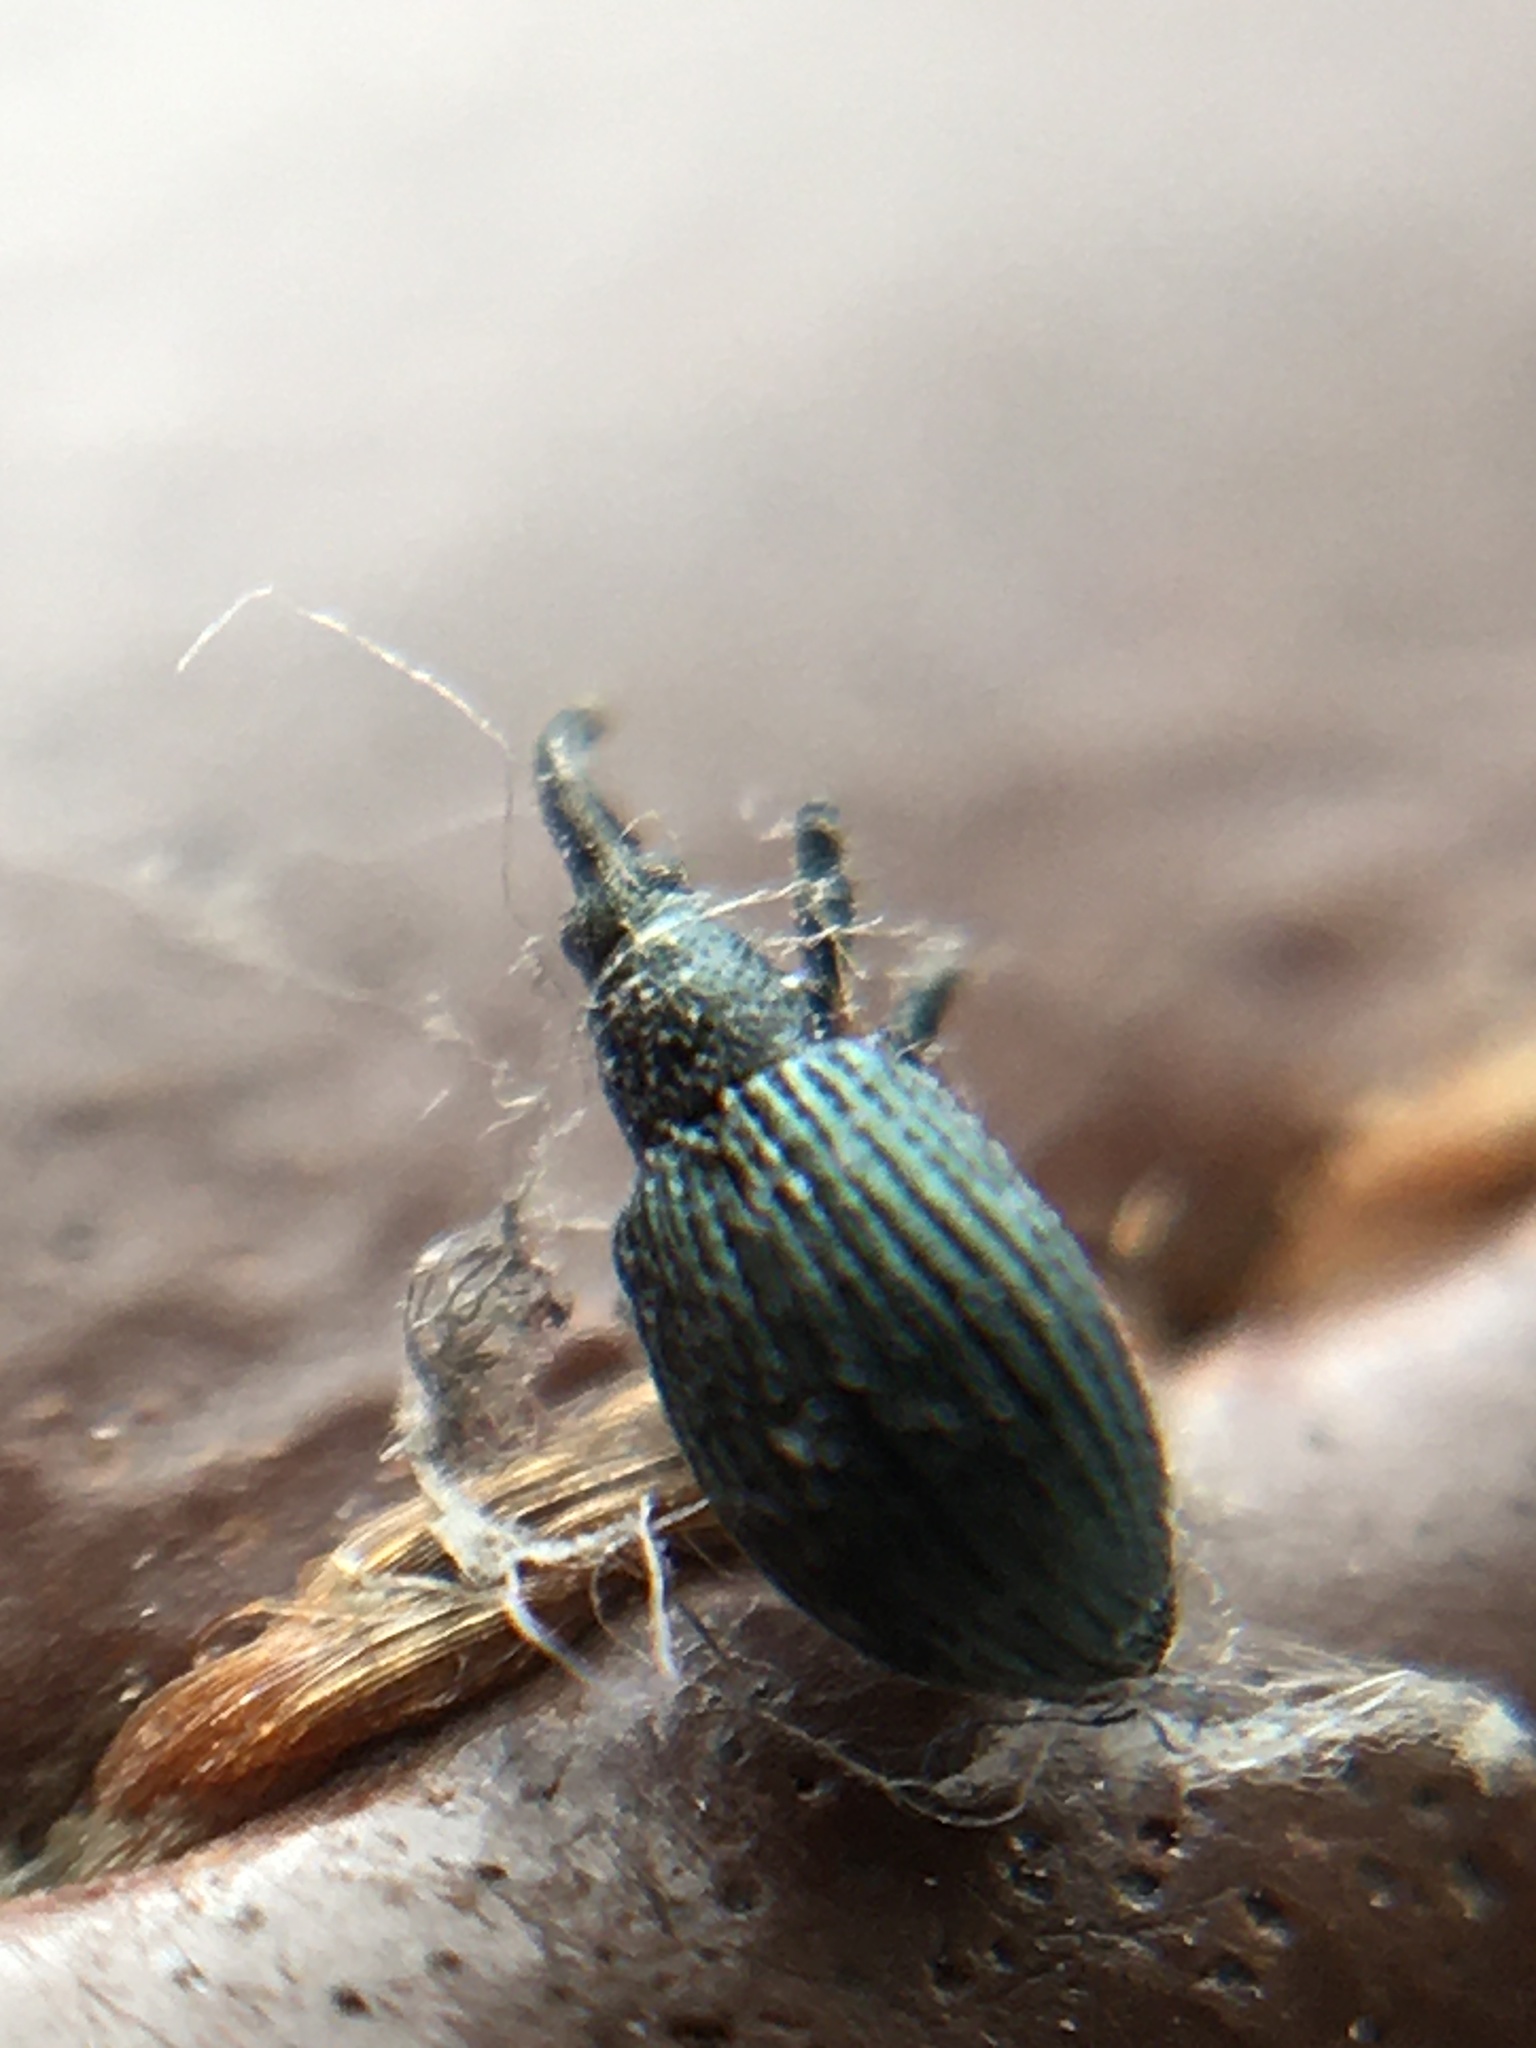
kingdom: Animalia
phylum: Arthropoda
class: Insecta
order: Coleoptera
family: Apionidae
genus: Ischnopterapion
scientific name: Ischnopterapion virens
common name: White clover weevil
